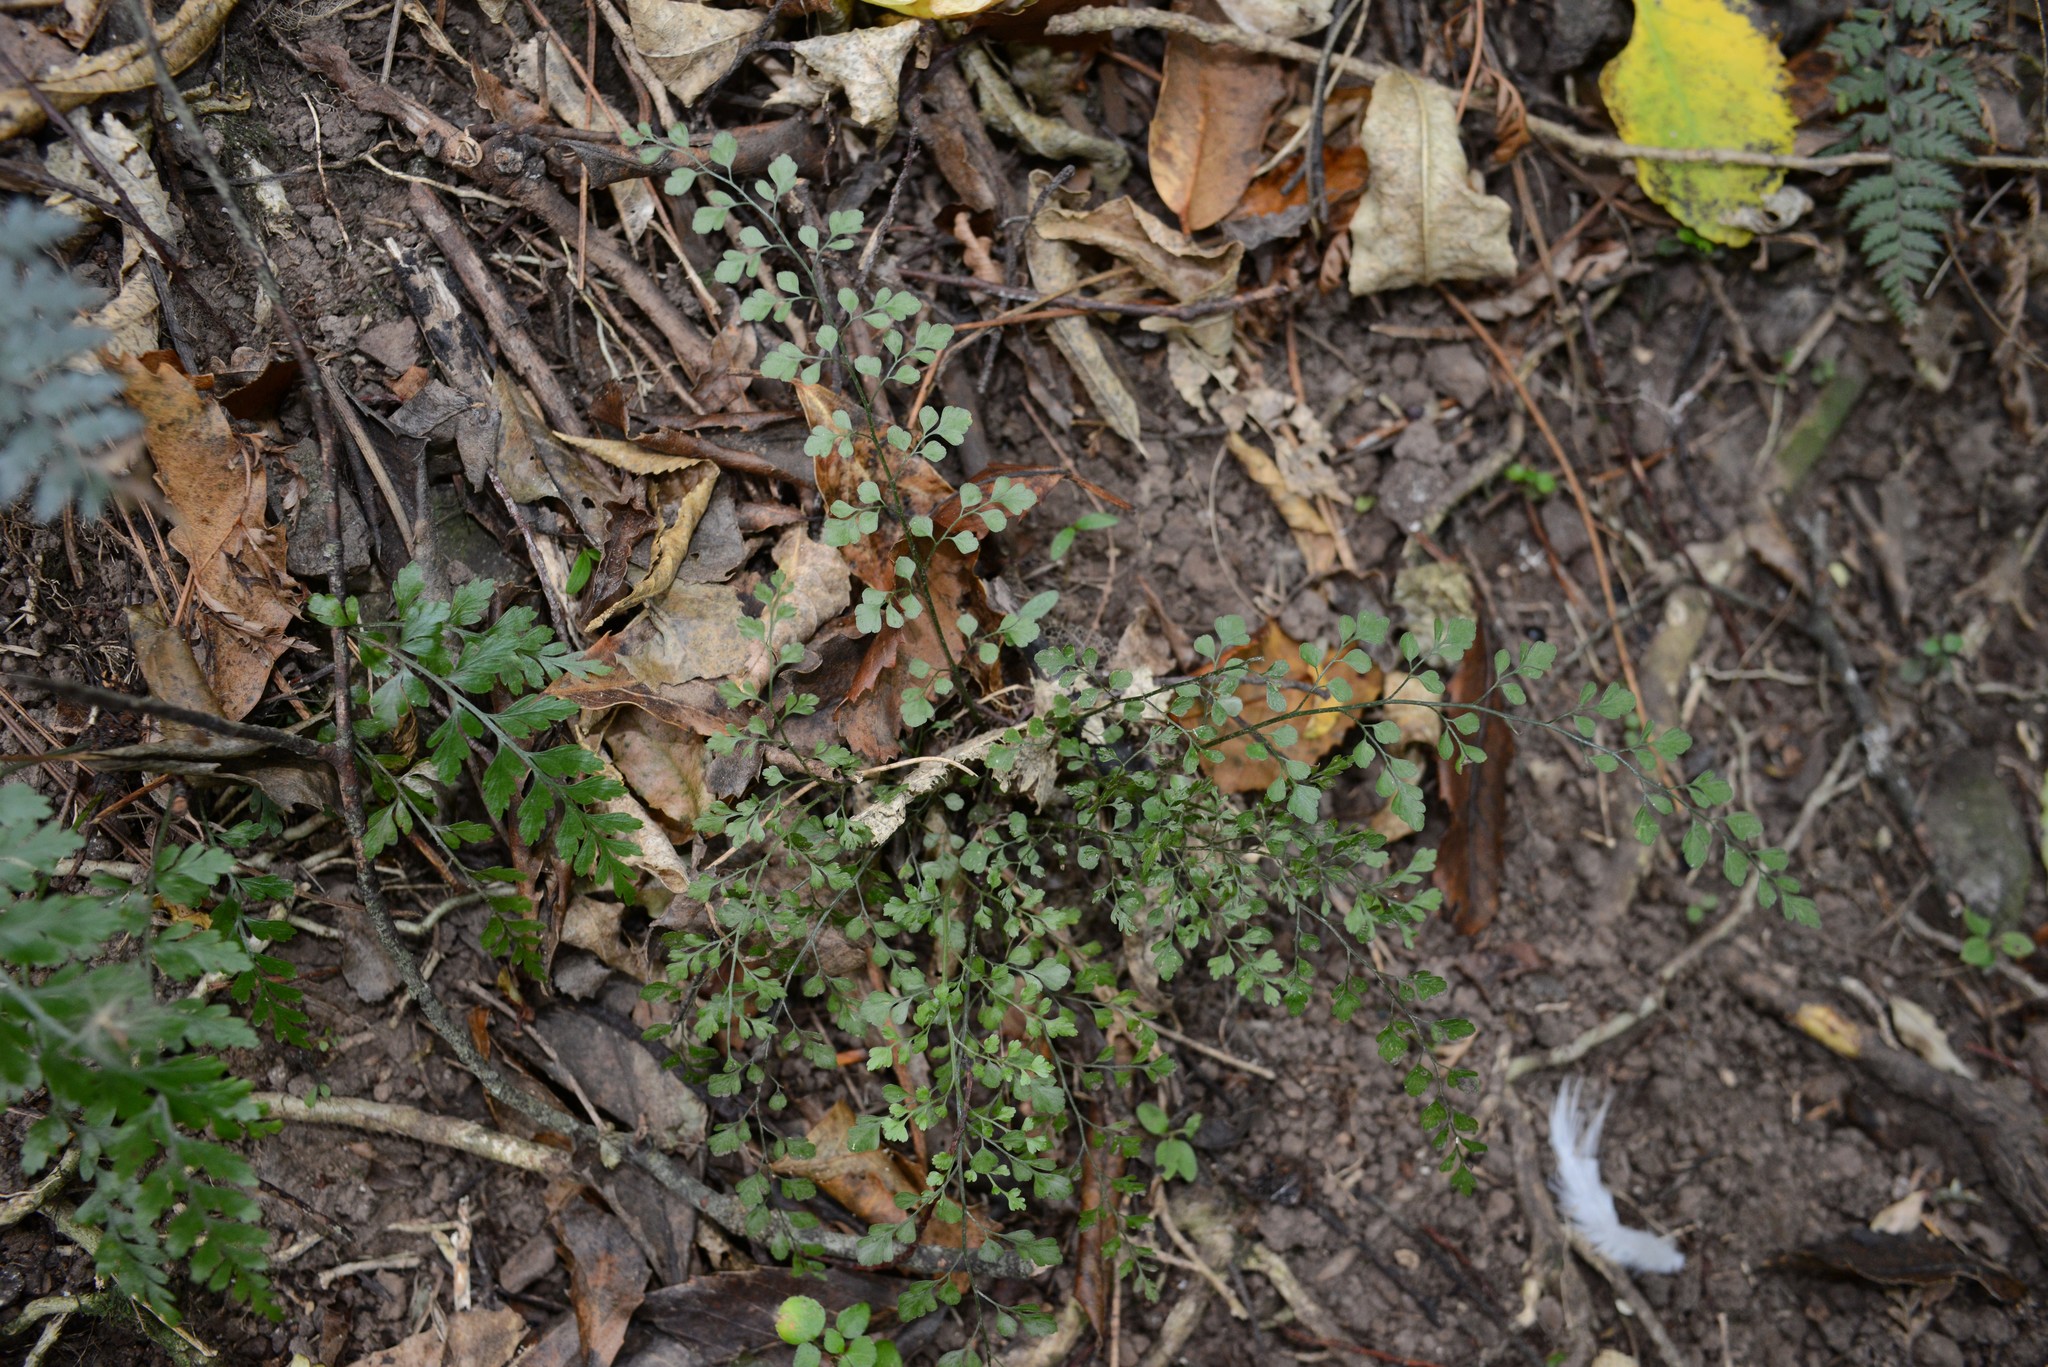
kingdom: Plantae
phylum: Tracheophyta
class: Polypodiopsida
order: Polypodiales
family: Aspleniaceae
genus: Asplenium
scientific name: Asplenium hookerianum
